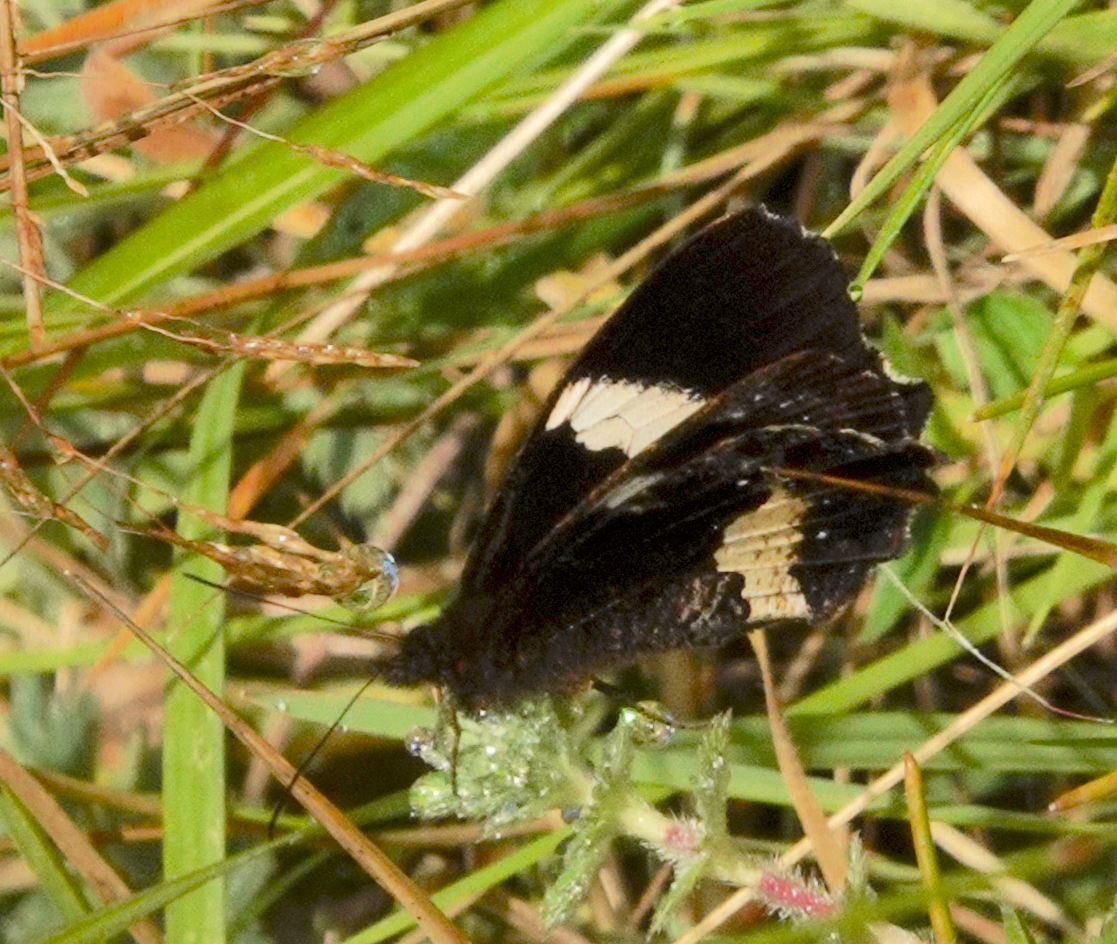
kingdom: Animalia
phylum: Arthropoda
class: Insecta
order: Lepidoptera
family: Nymphalidae
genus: Pedaliodes
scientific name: Pedaliodes phaedra
